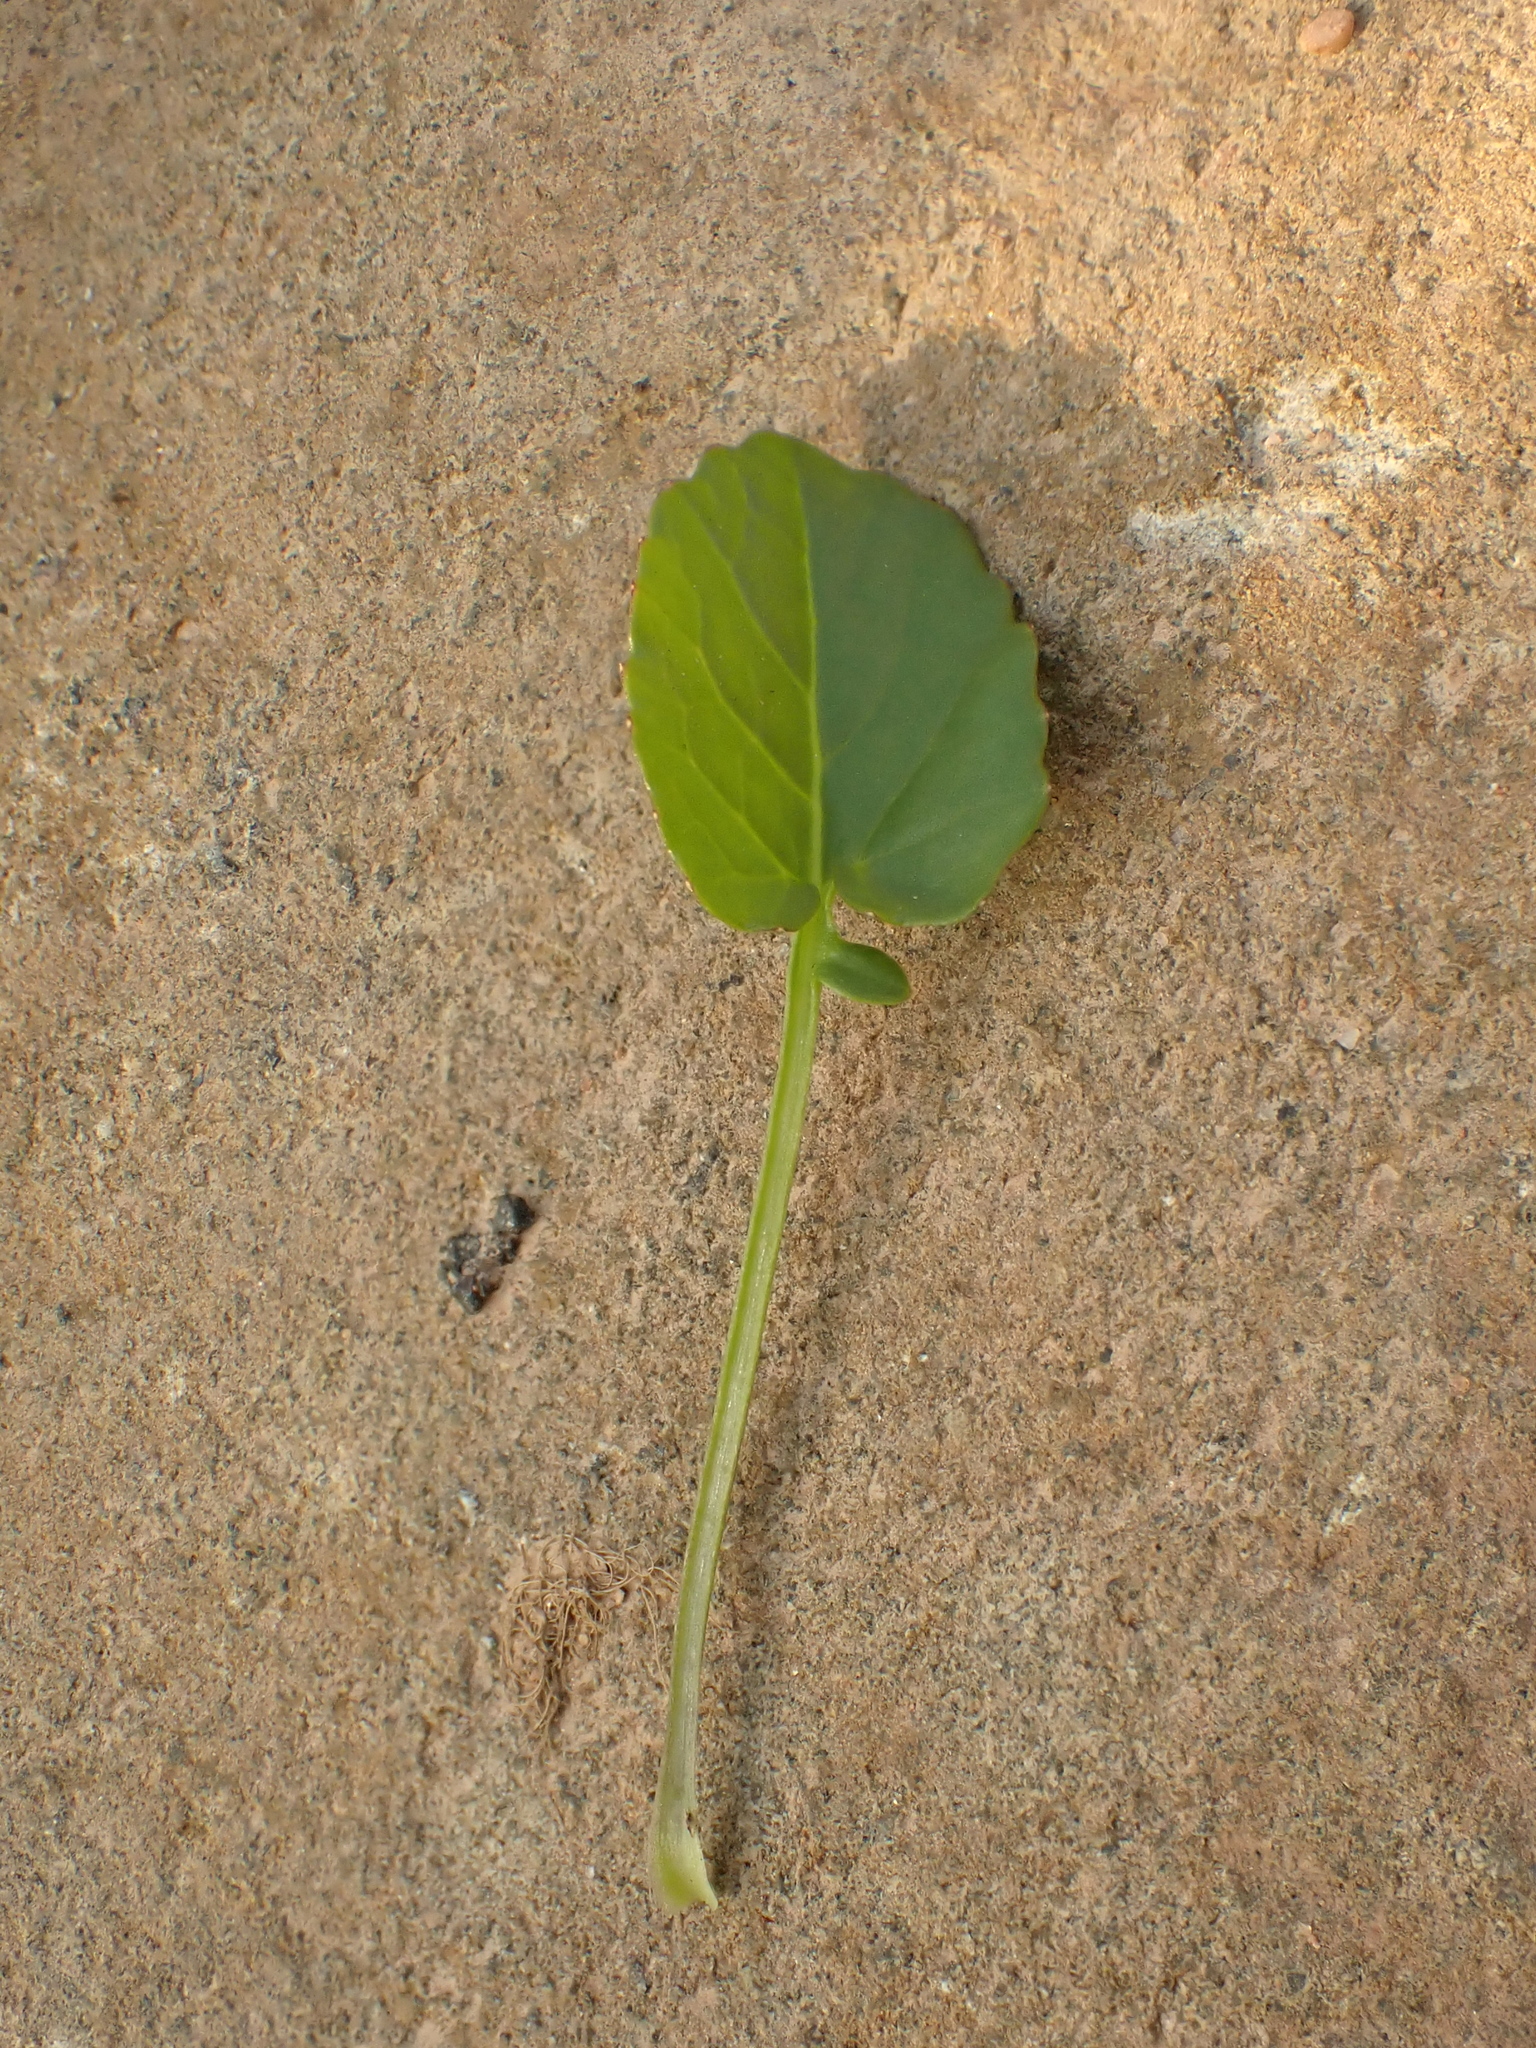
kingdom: Plantae
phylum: Tracheophyta
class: Magnoliopsida
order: Malpighiales
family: Violaceae
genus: Viola
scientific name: Viola arvensis
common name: Field pansy
